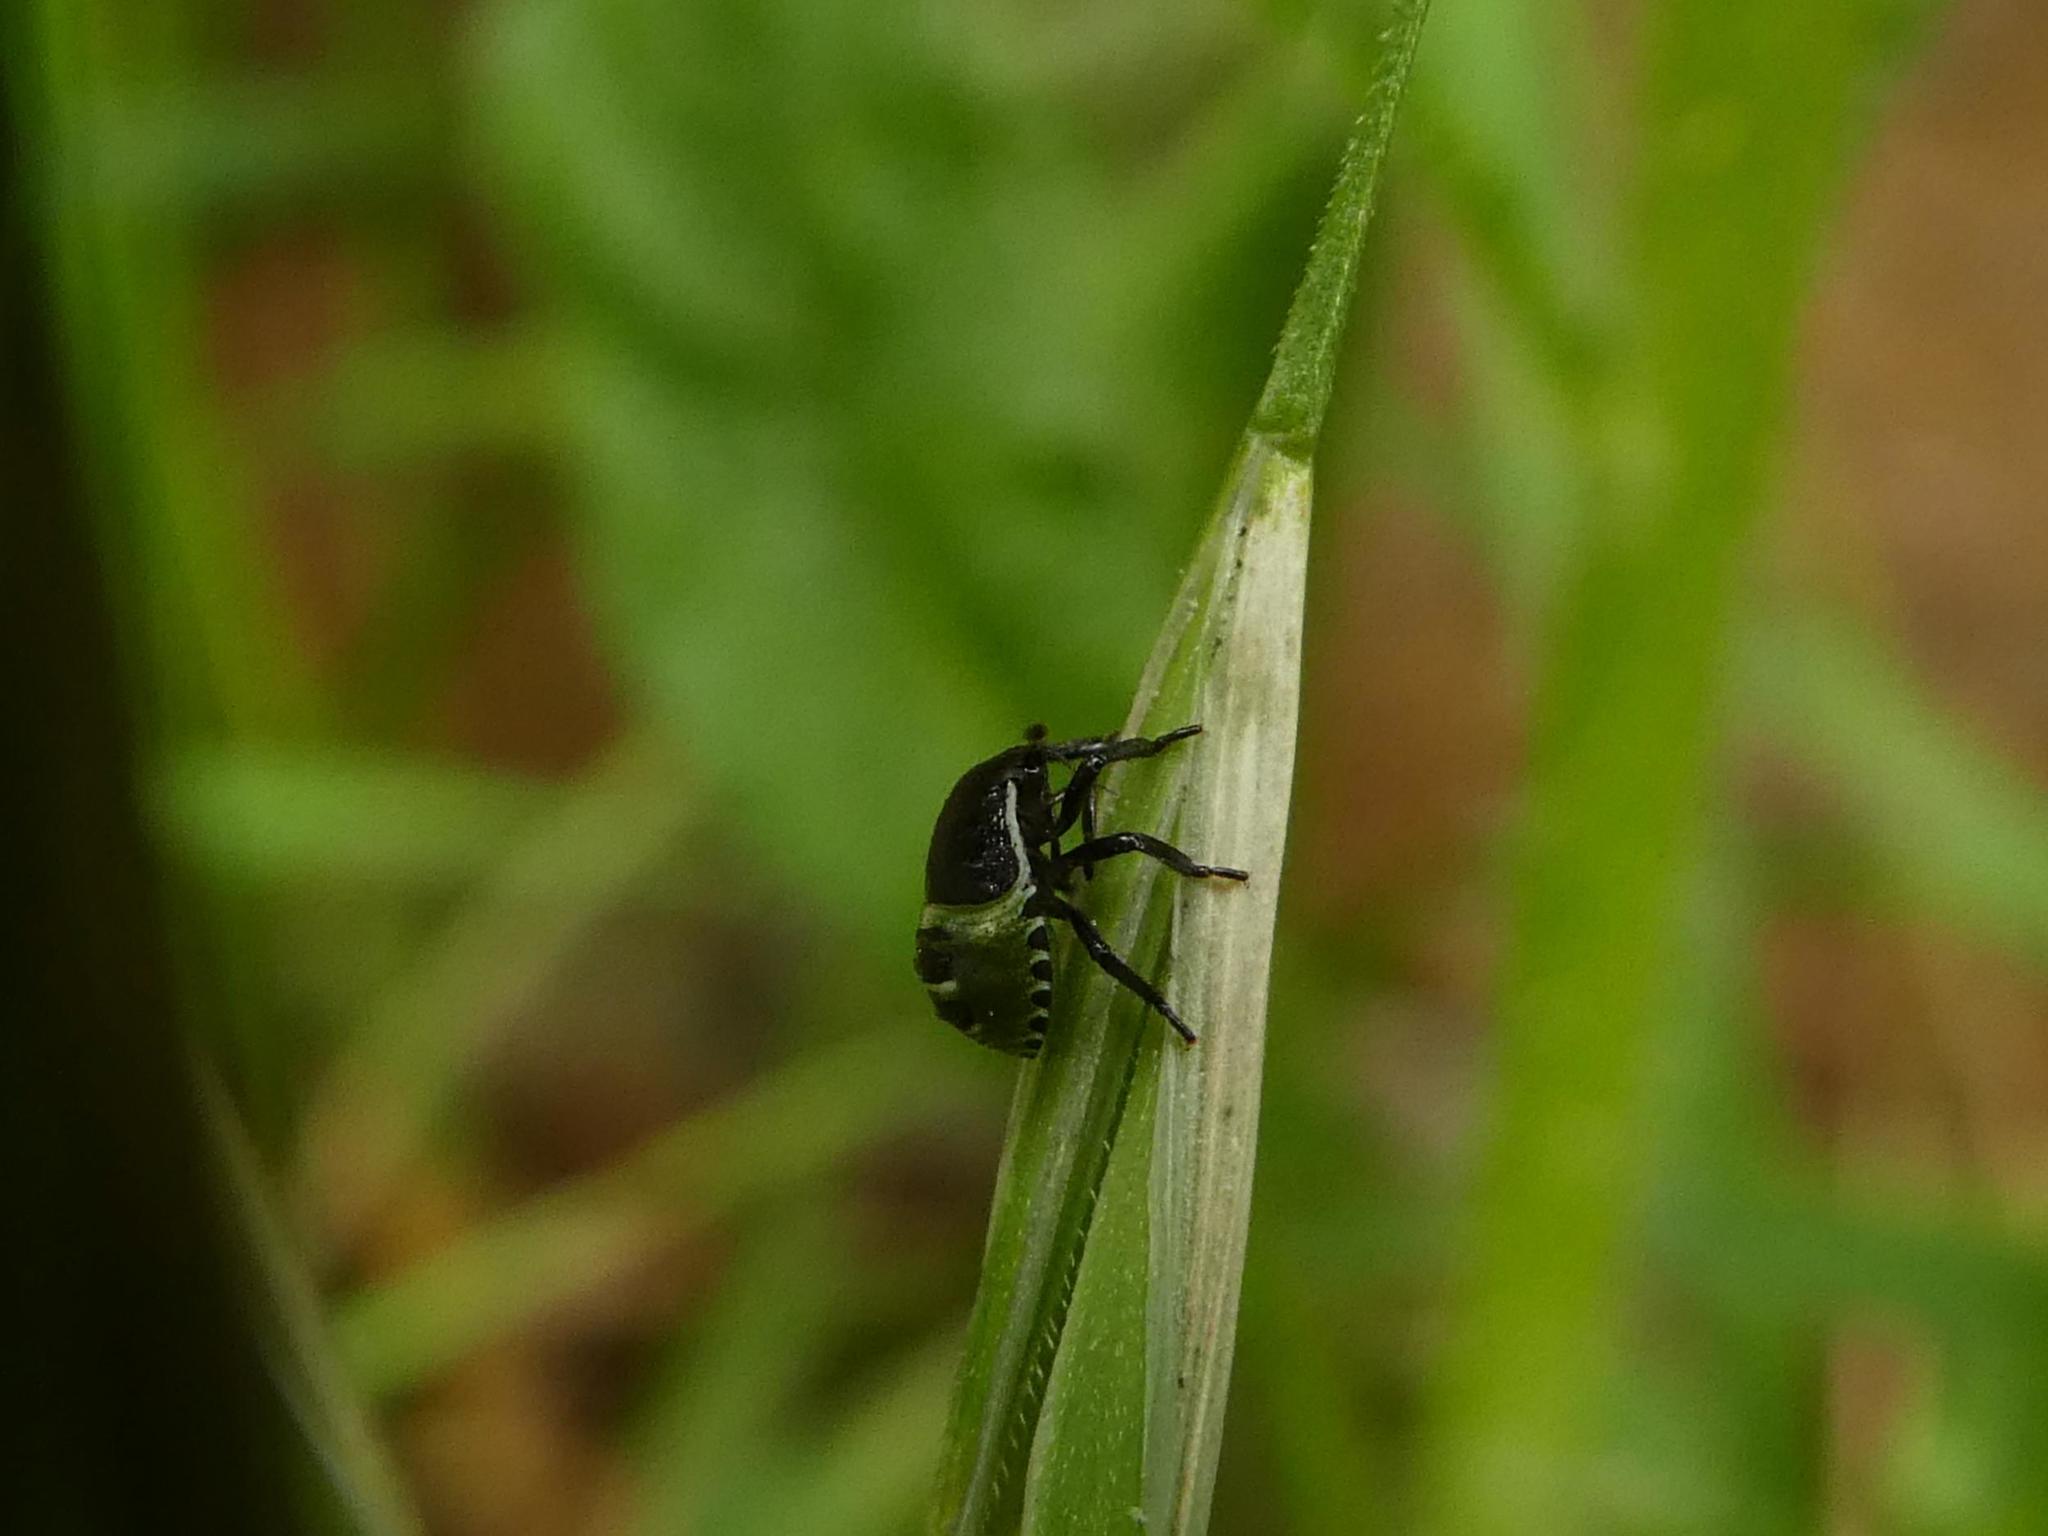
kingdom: Animalia
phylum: Arthropoda
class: Insecta
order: Hemiptera
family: Pentatomidae
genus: Palomena
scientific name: Palomena prasina
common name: Green shieldbug
